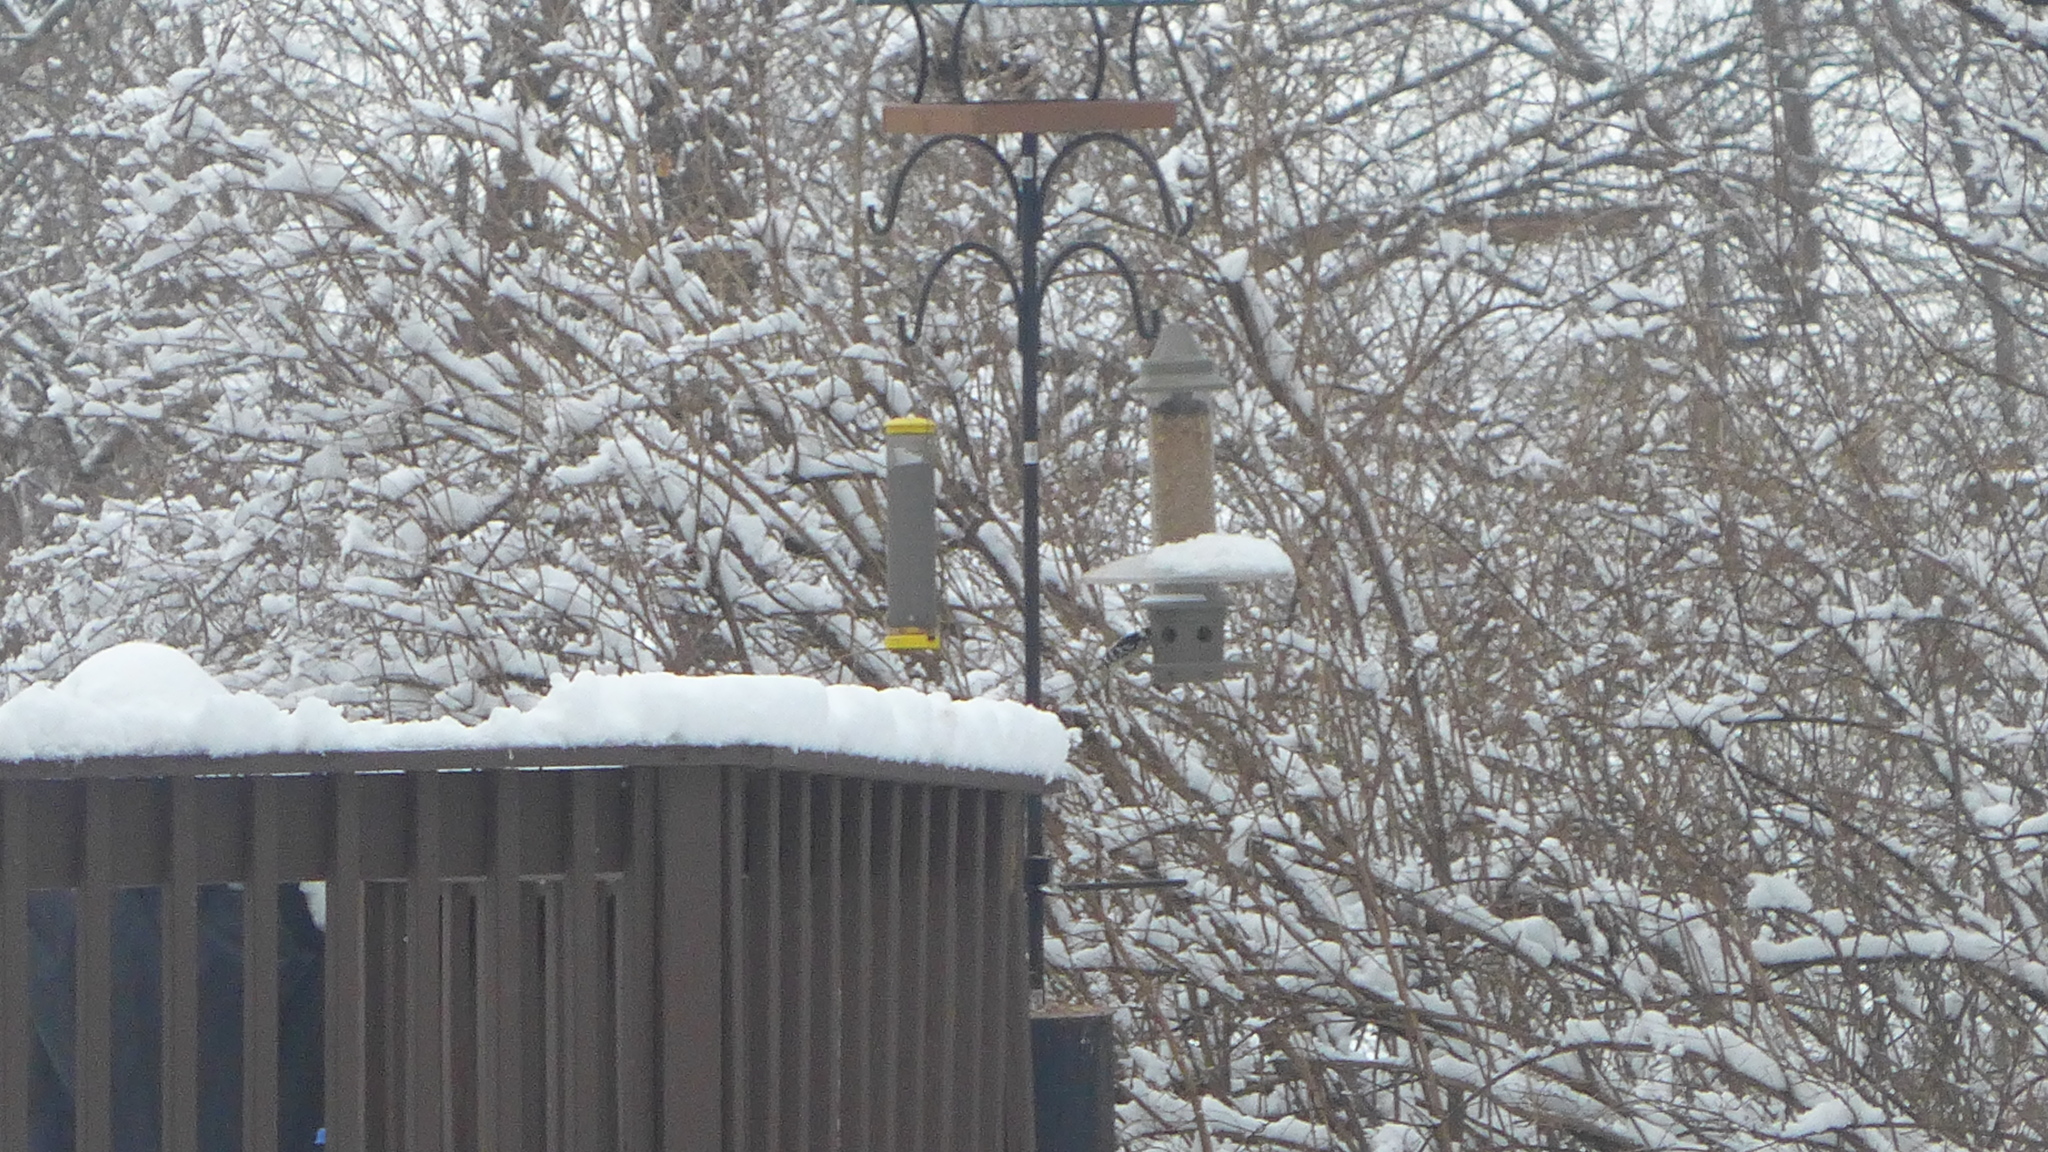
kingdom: Animalia
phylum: Chordata
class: Aves
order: Piciformes
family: Picidae
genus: Dryobates
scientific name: Dryobates pubescens
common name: Downy woodpecker
